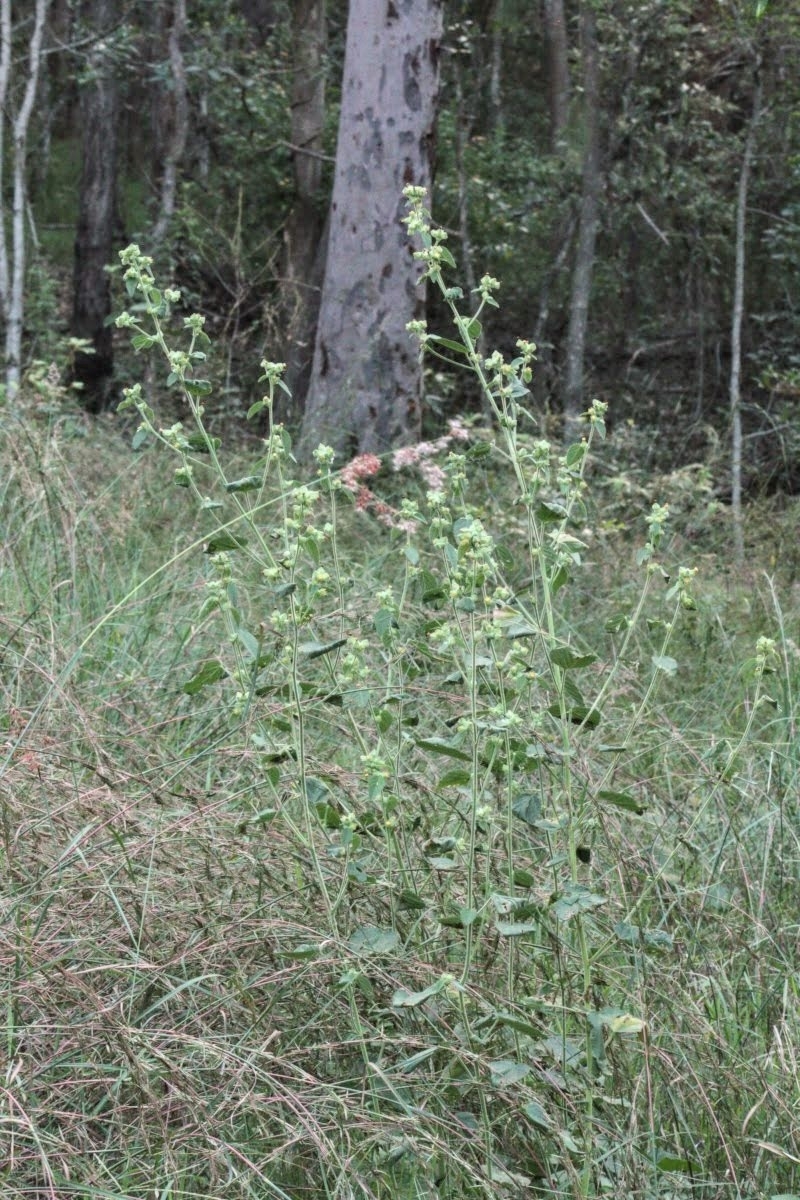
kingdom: Plantae
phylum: Tracheophyta
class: Magnoliopsida
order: Malvales
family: Malvaceae
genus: Sida
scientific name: Sida cordifolia
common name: Ilima
